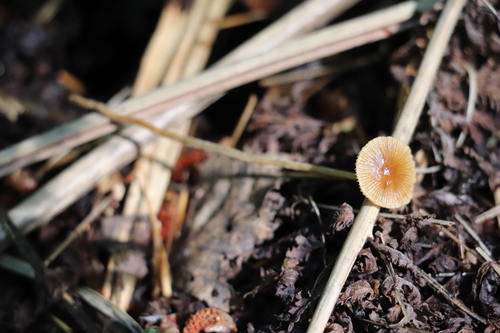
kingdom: Fungi
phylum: Basidiomycota
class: Agaricomycetes
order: Agaricales
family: Bolbitiaceae
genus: Conocybe
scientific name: Conocybe brunnea
